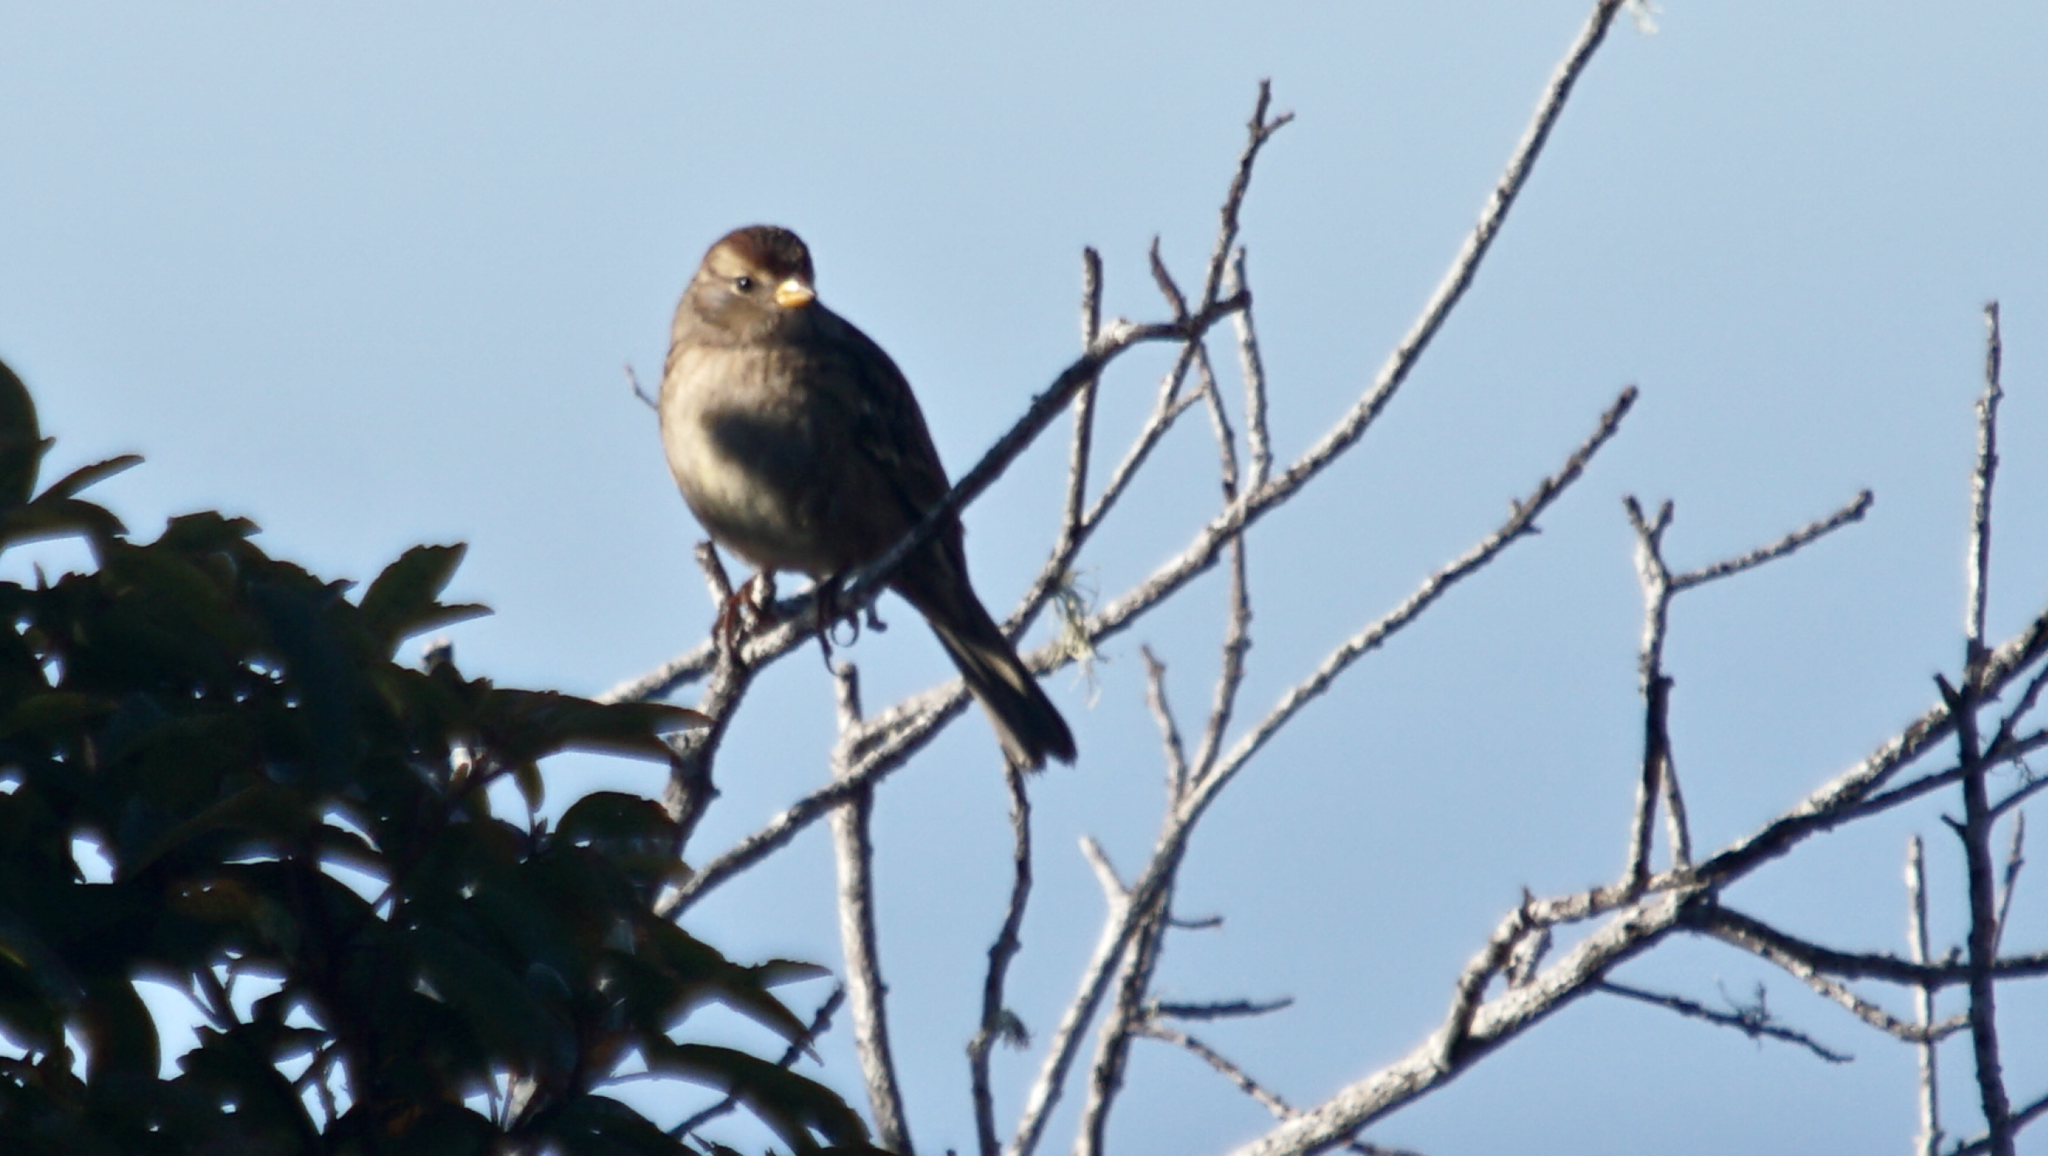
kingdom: Animalia
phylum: Chordata
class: Aves
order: Passeriformes
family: Passerellidae
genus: Zonotrichia
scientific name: Zonotrichia leucophrys
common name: White-crowned sparrow
